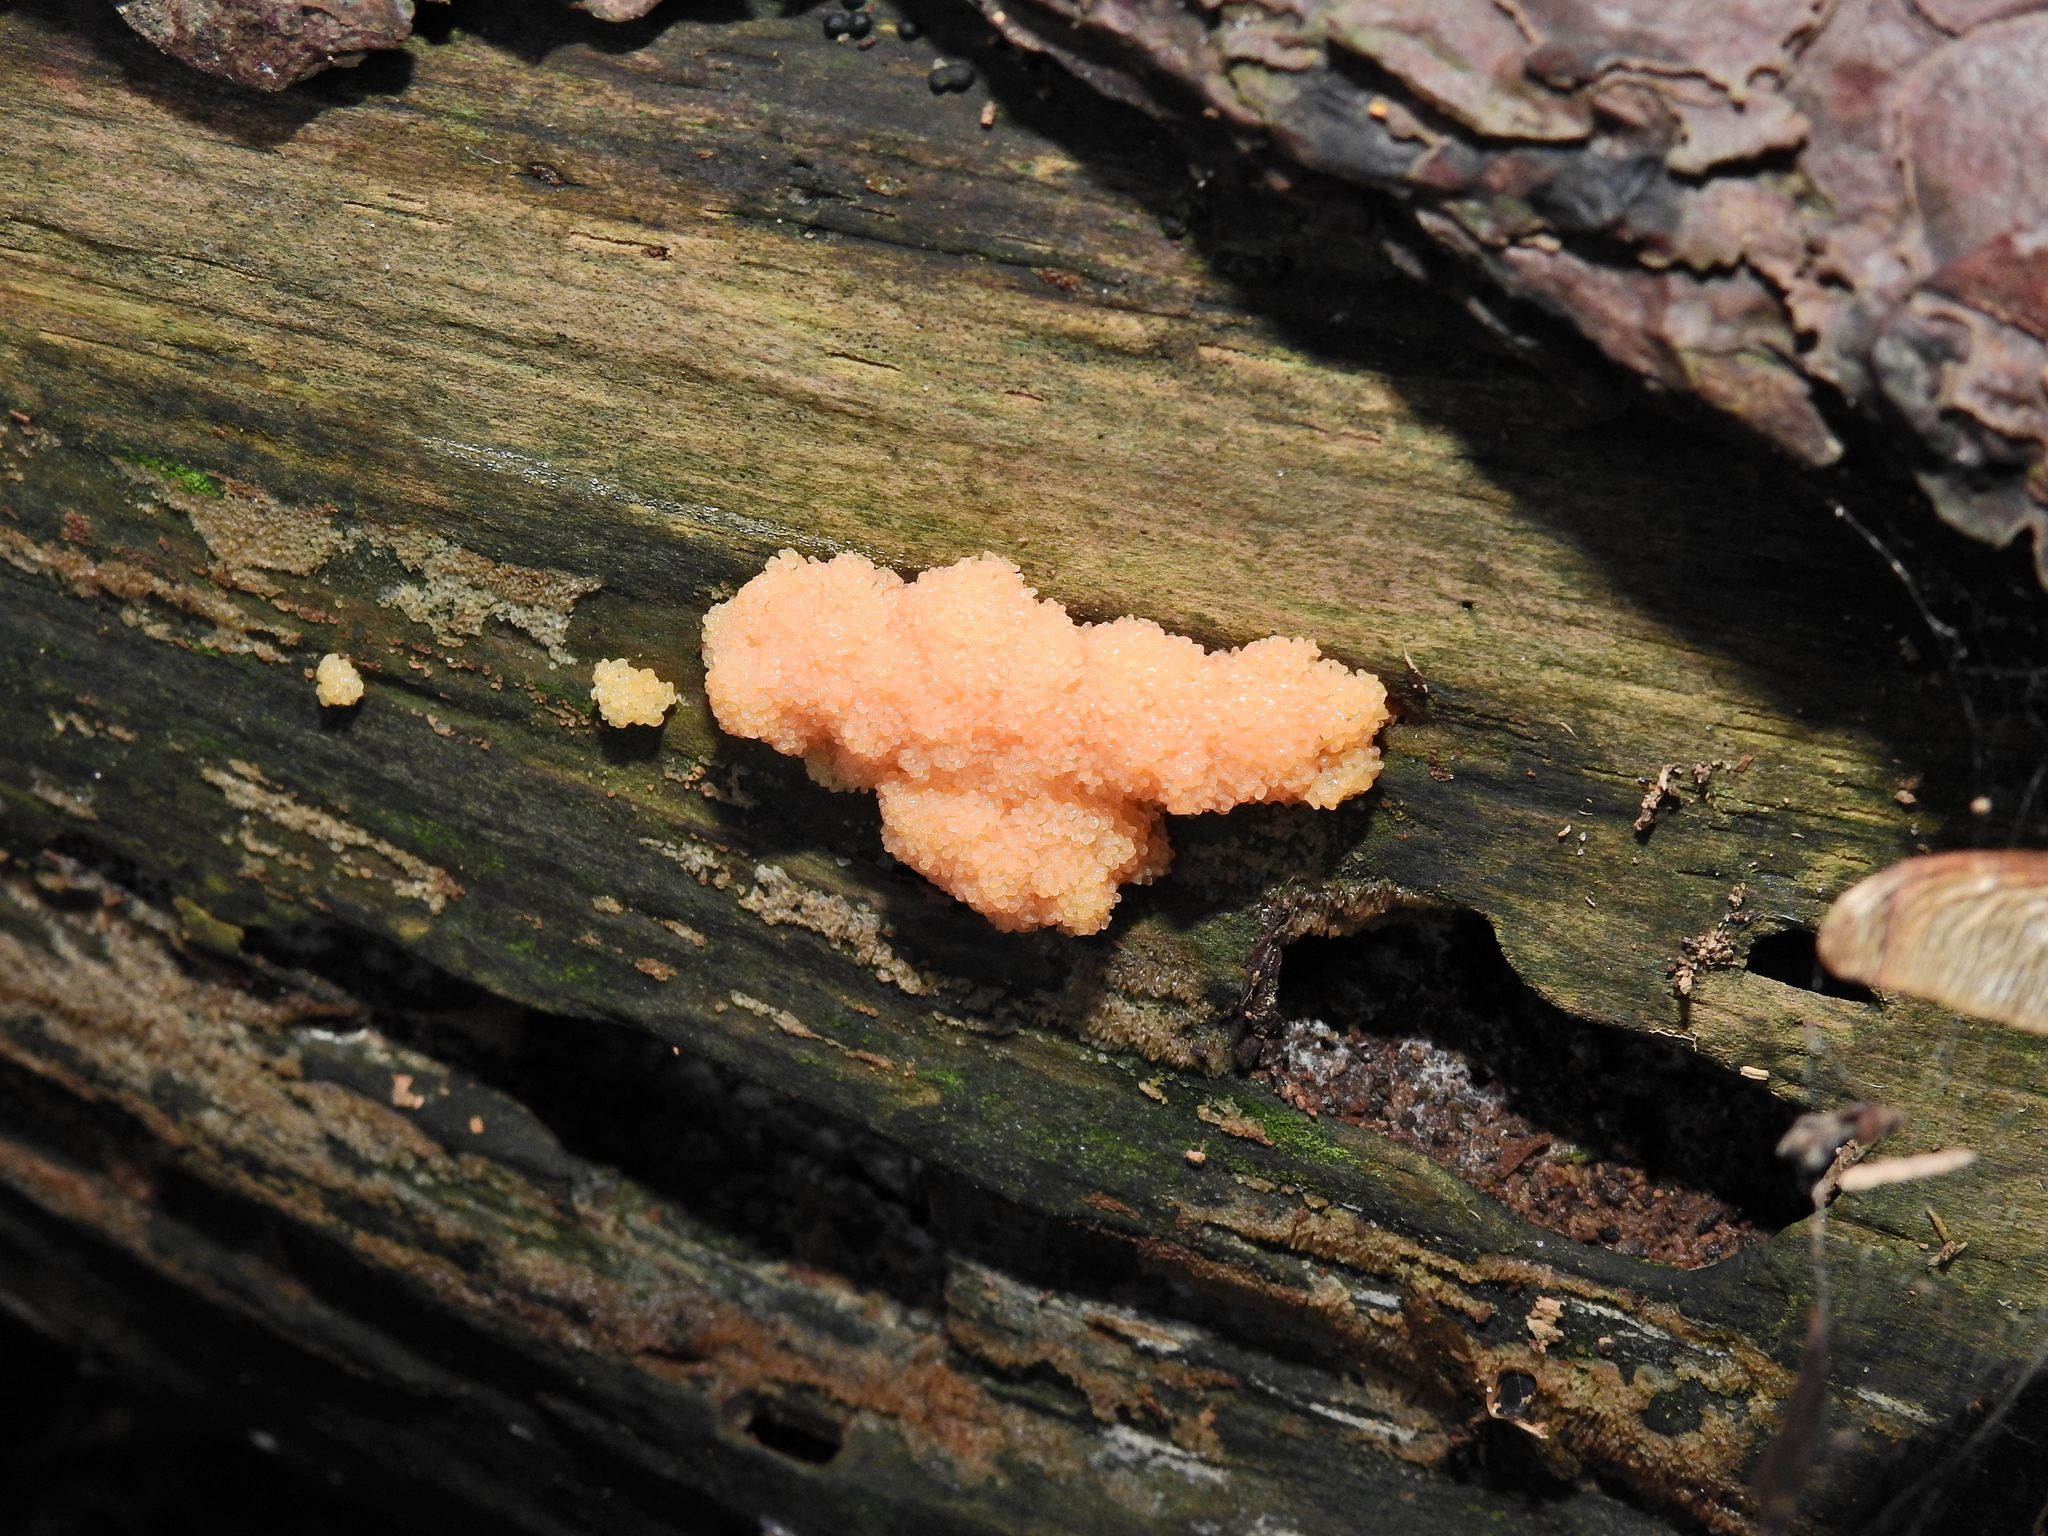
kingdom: Protozoa
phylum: Mycetozoa
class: Myxomycetes
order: Cribrariales
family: Tubiferaceae
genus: Tubifera
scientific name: Tubifera ferruginosa
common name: Red raspberry slime mold
